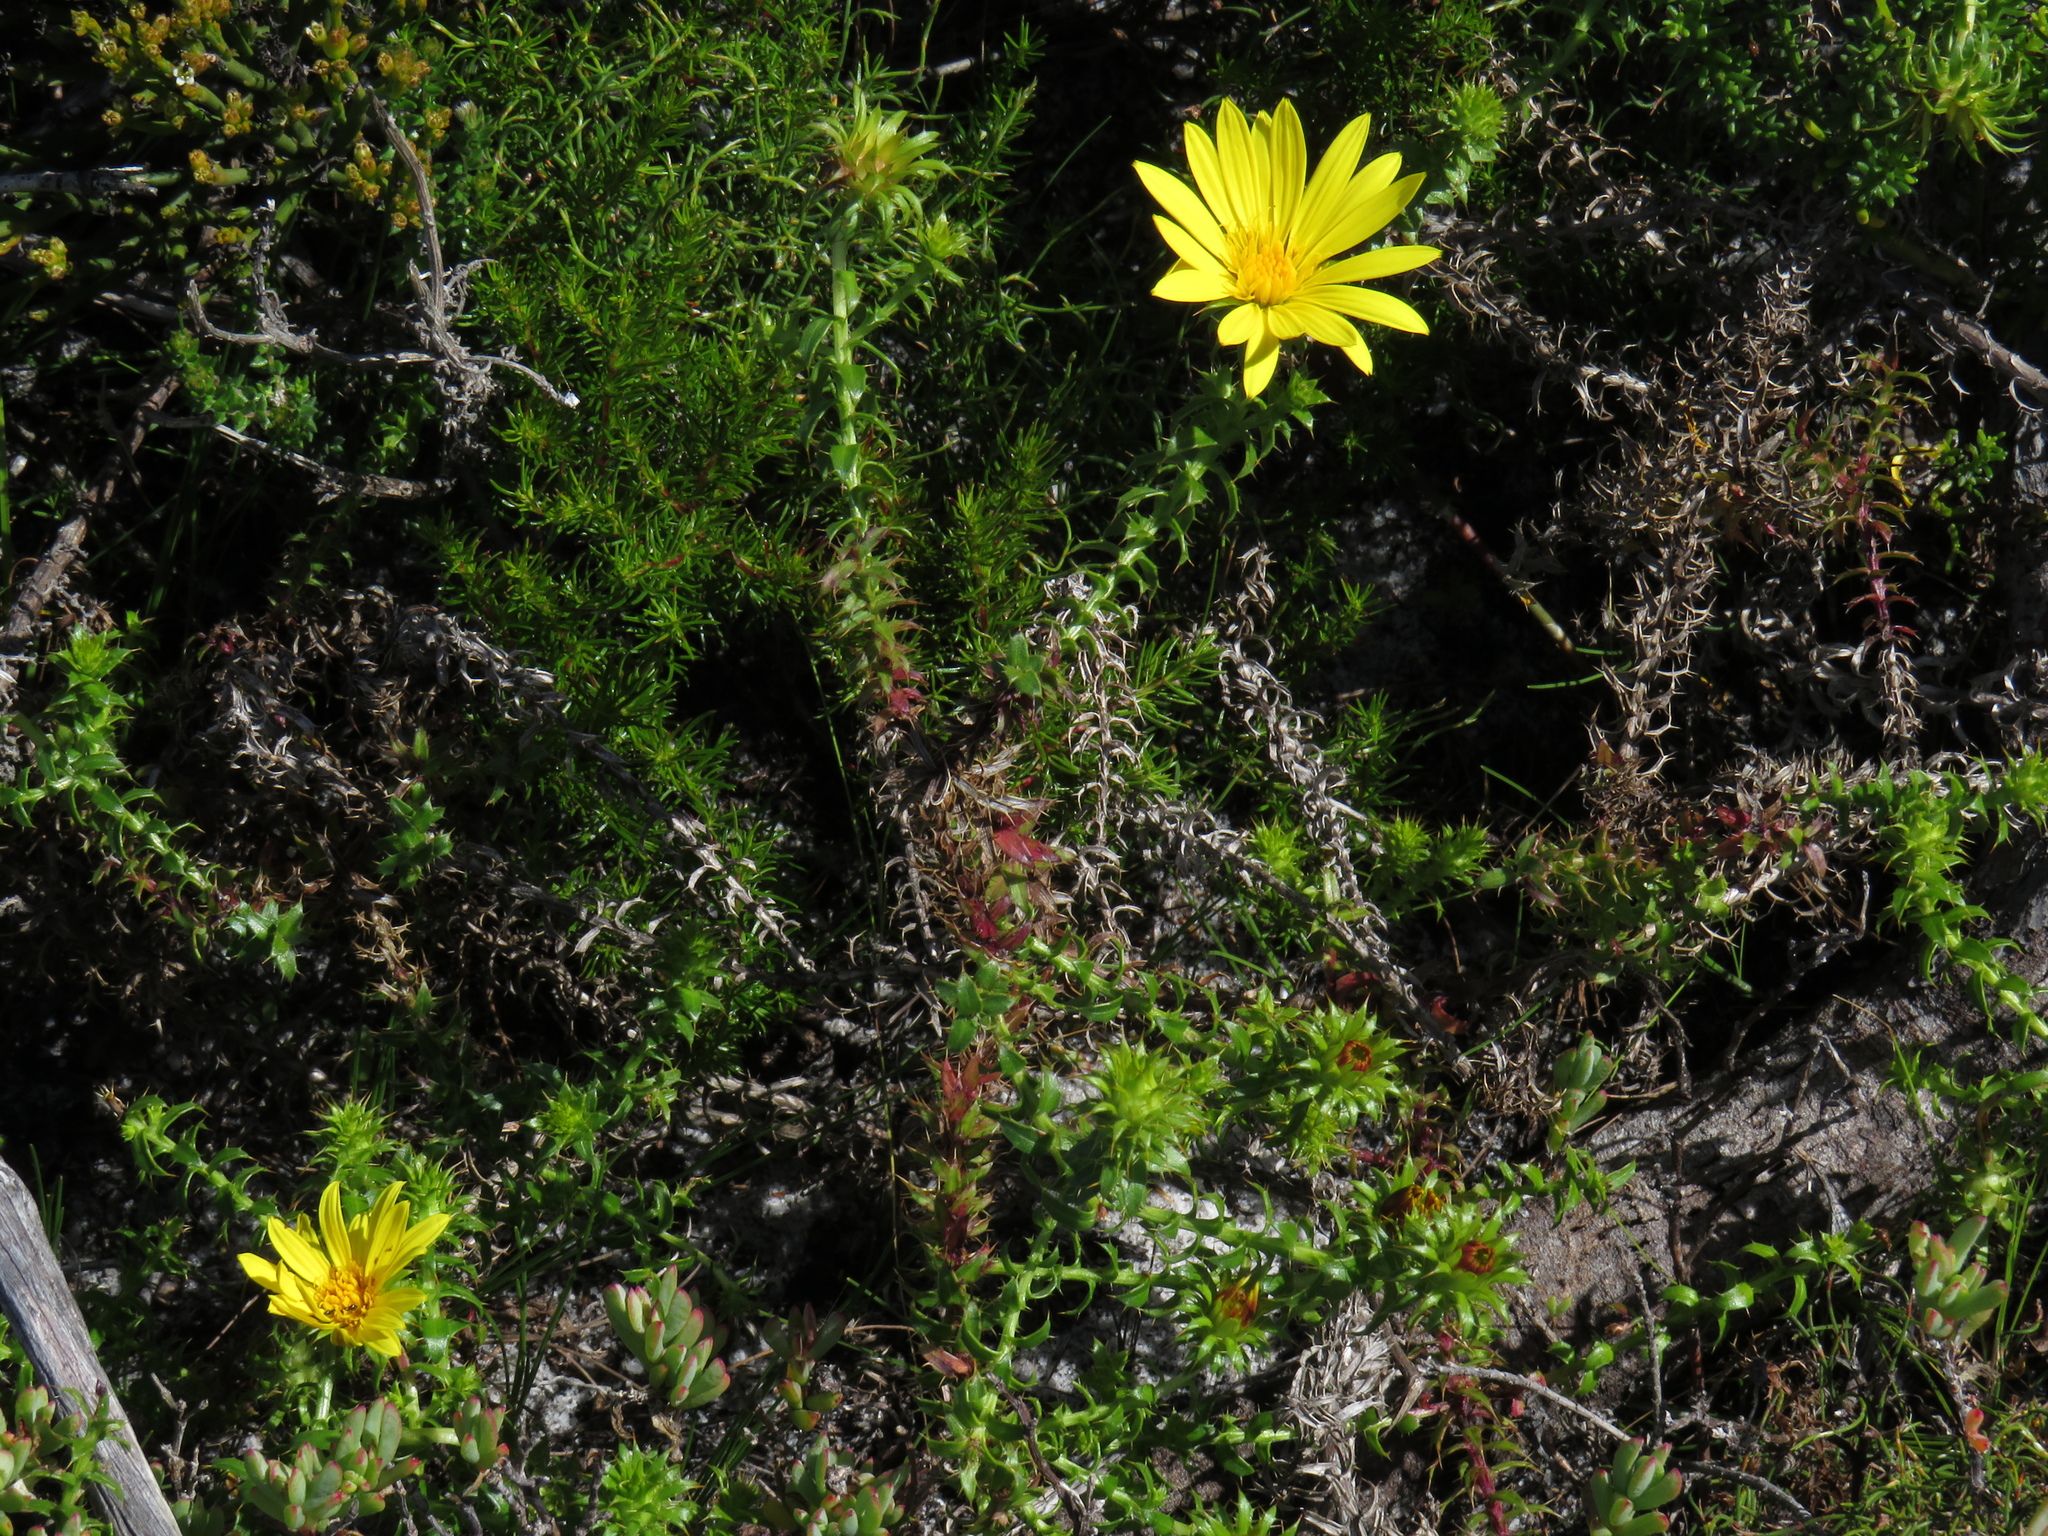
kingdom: Plantae
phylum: Tracheophyta
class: Magnoliopsida
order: Asterales
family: Asteraceae
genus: Cullumia
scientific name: Cullumia setosa
